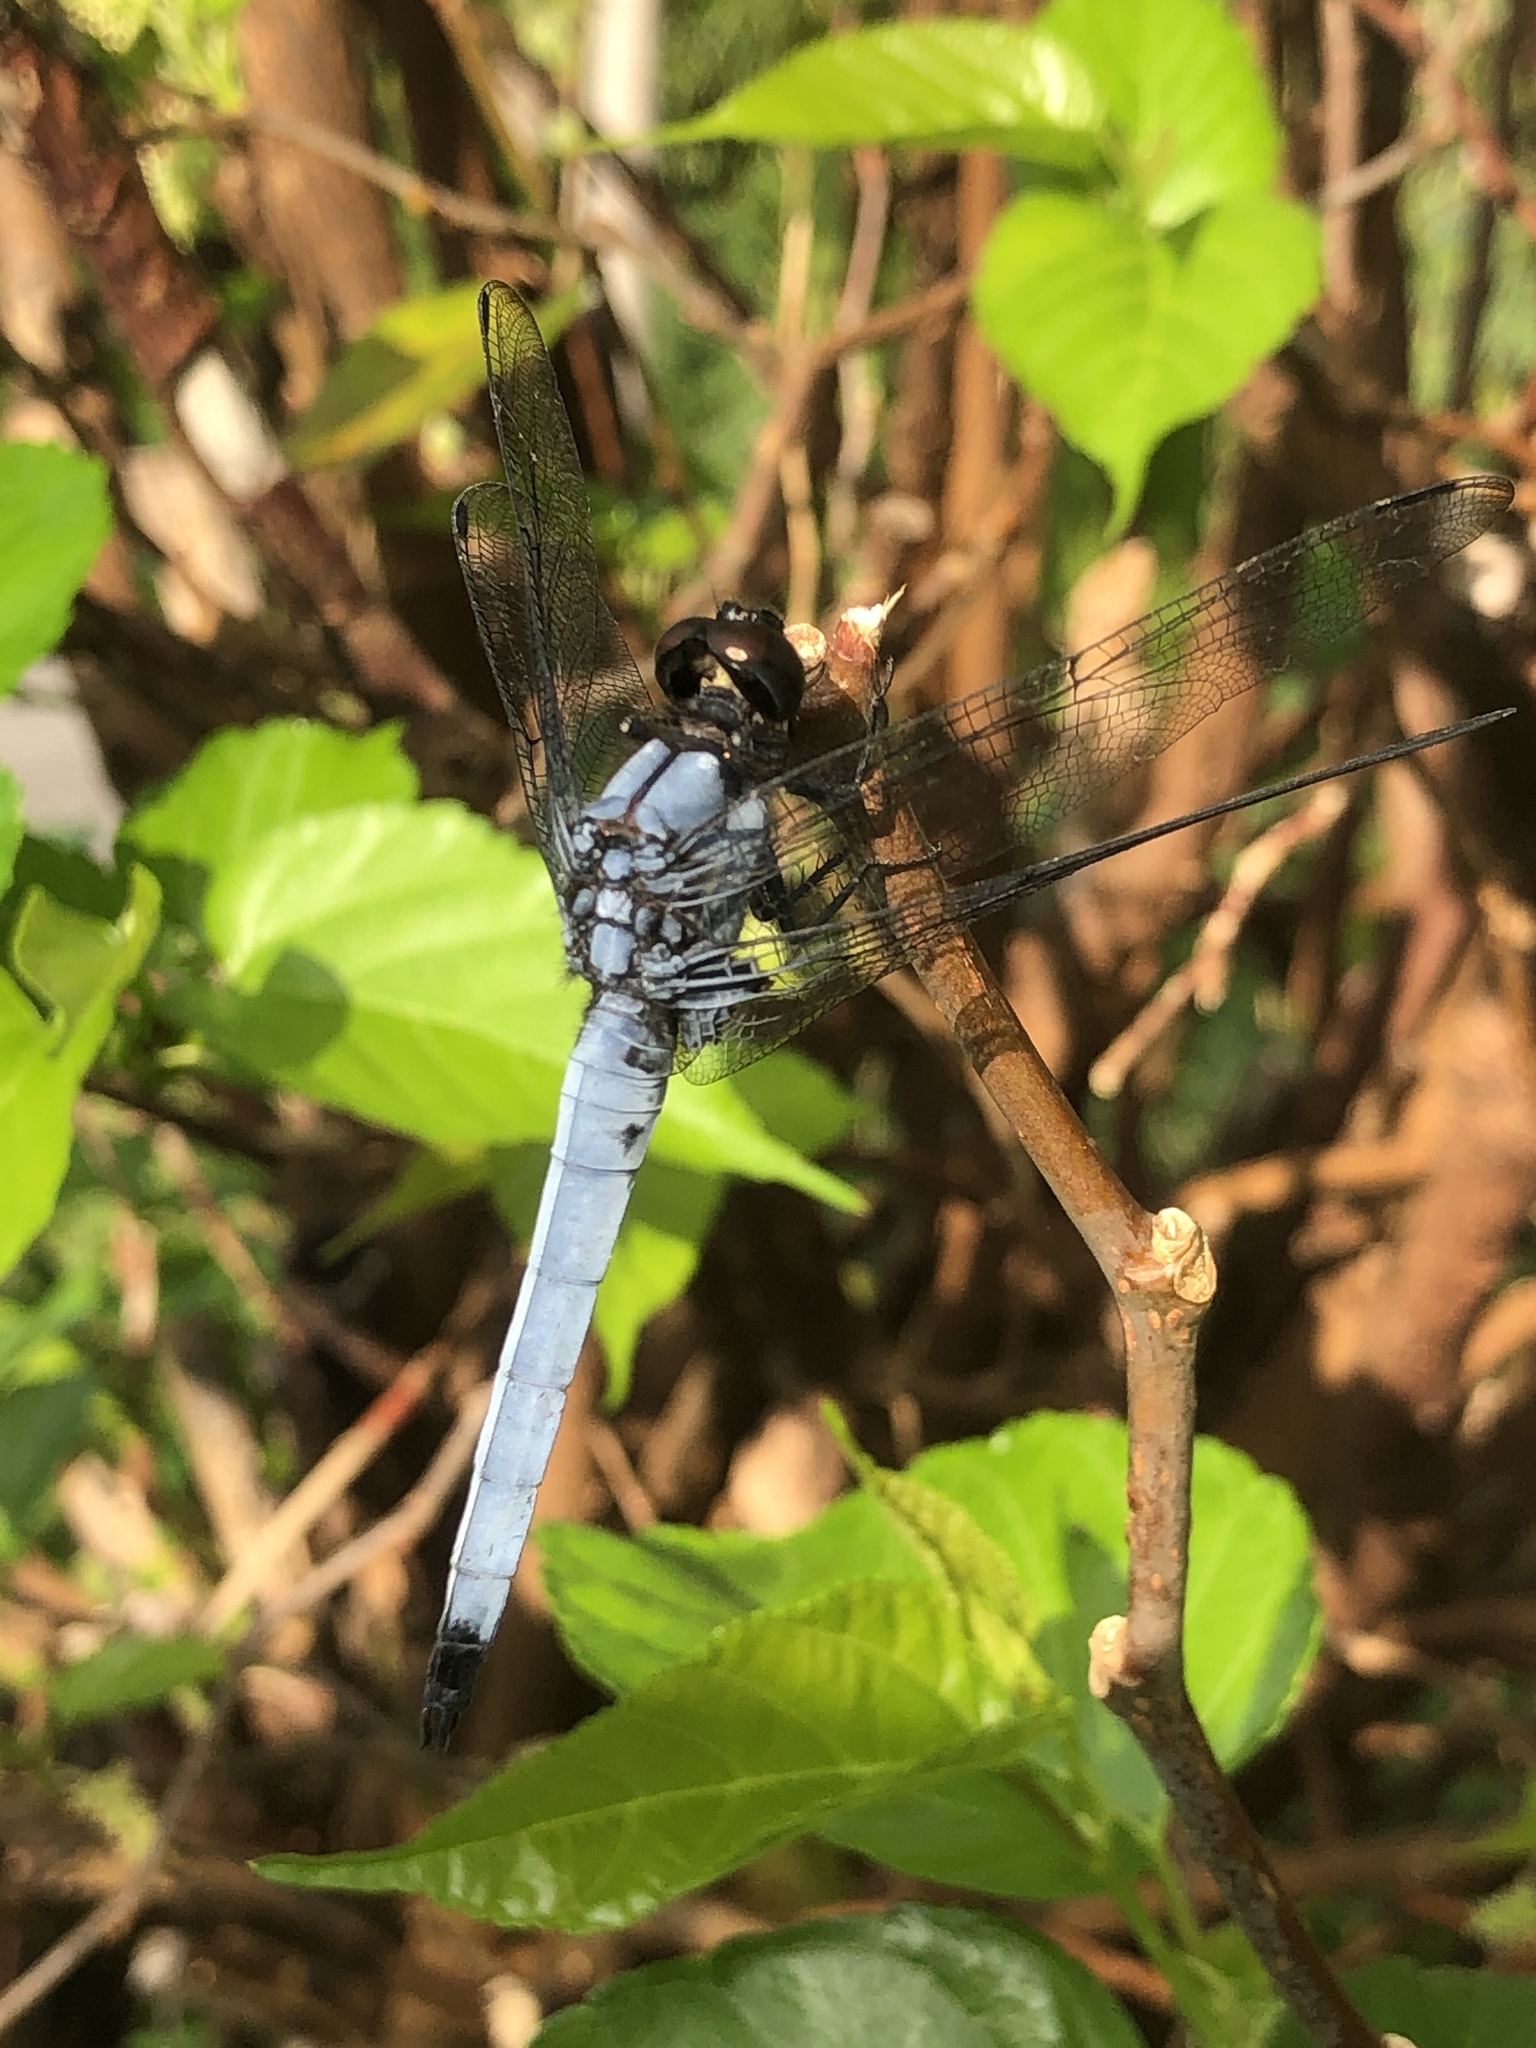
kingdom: Animalia
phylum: Arthropoda
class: Insecta
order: Odonata
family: Libellulidae
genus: Orthetrum
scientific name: Orthetrum melania
